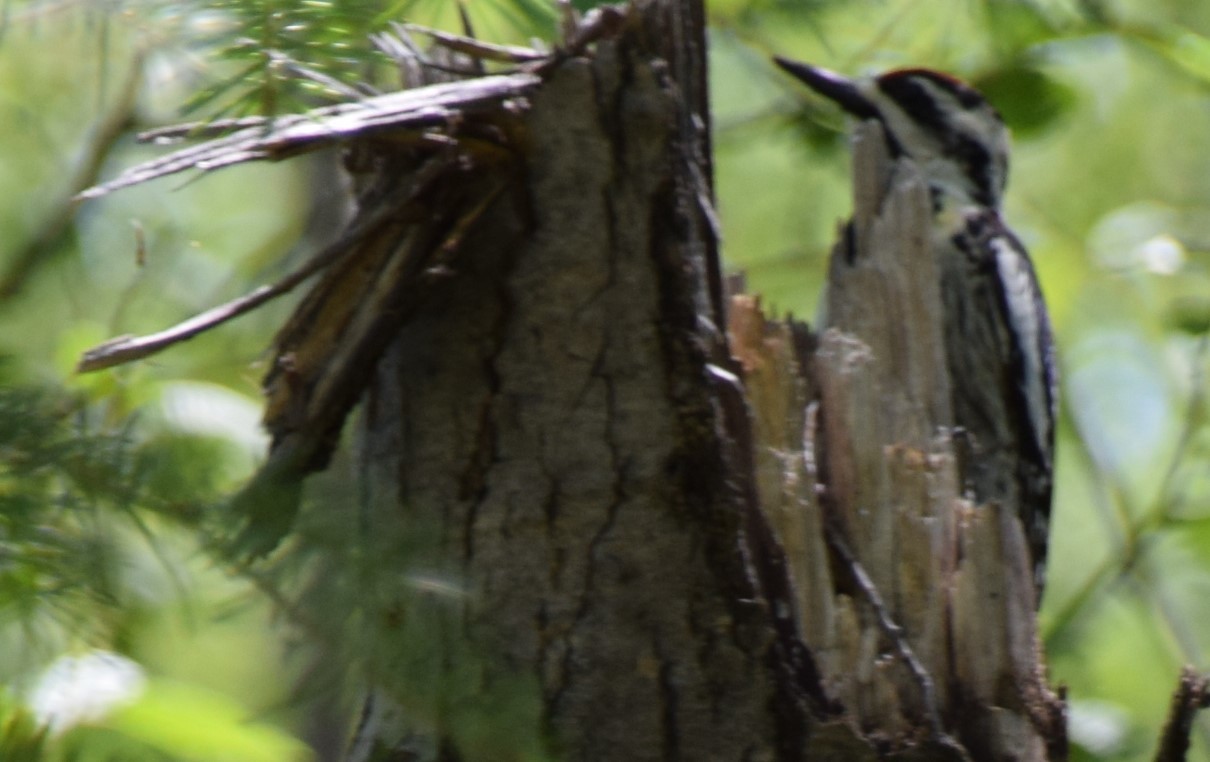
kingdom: Animalia
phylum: Chordata
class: Aves
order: Piciformes
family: Picidae
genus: Sphyrapicus
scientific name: Sphyrapicus varius
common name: Yellow-bellied sapsucker
